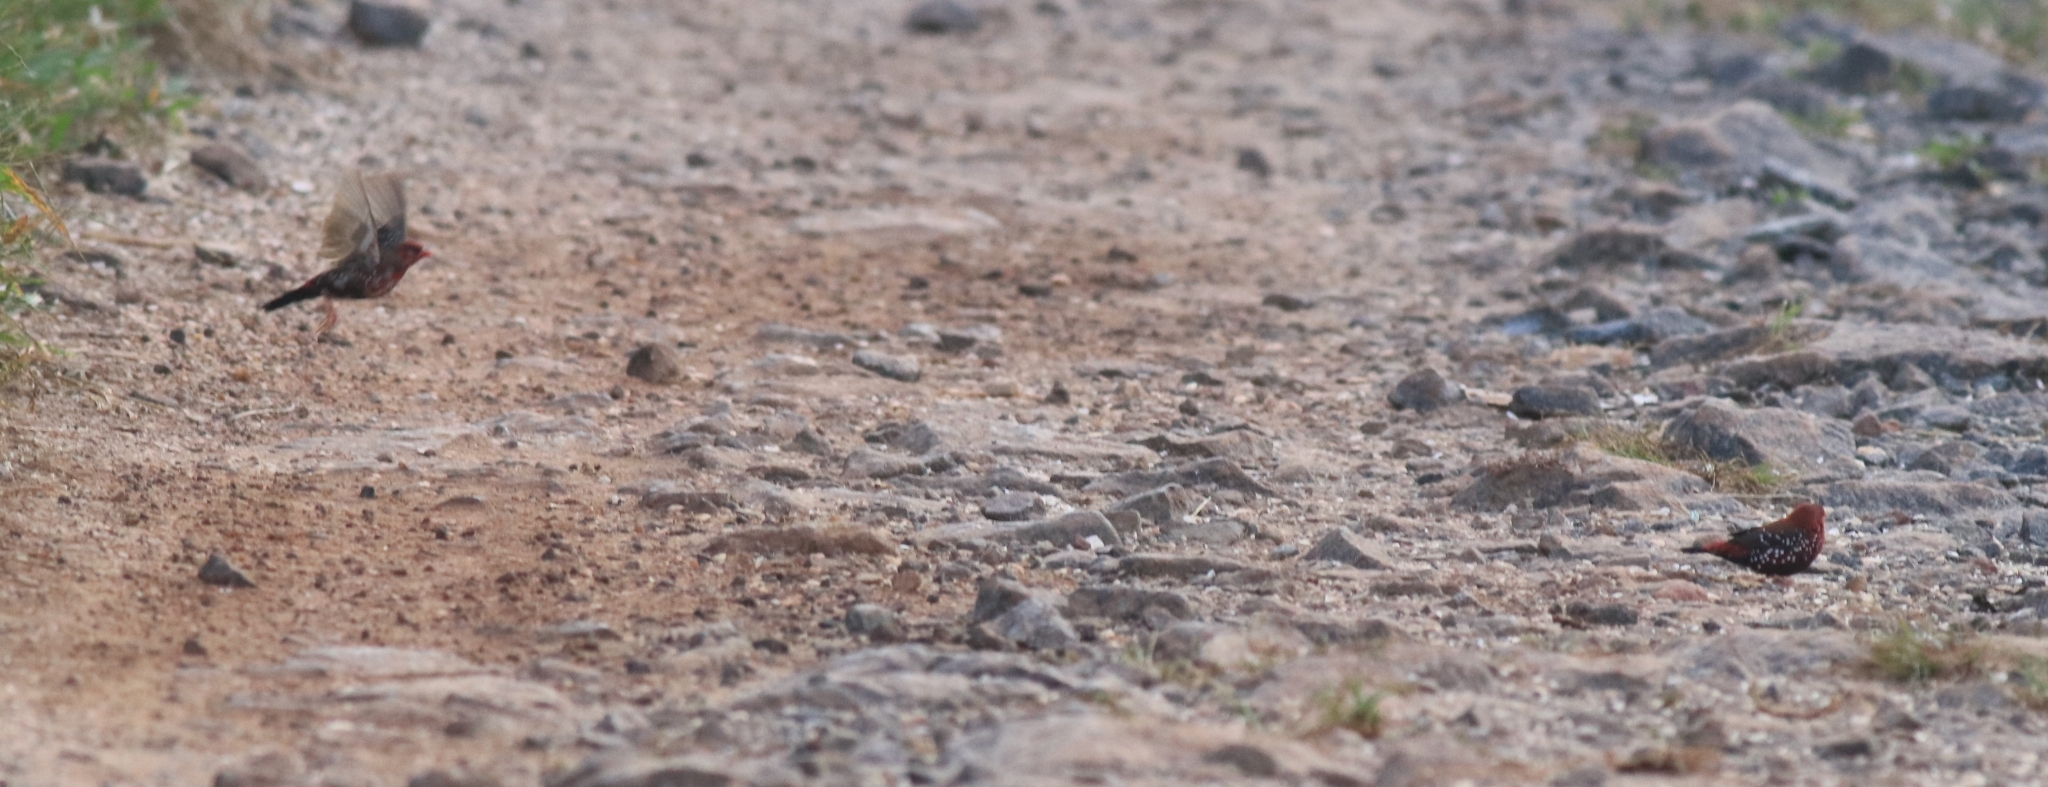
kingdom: Animalia
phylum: Chordata
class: Aves
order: Passeriformes
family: Estrildidae
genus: Amandava
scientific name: Amandava amandava
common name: Red avadavat
